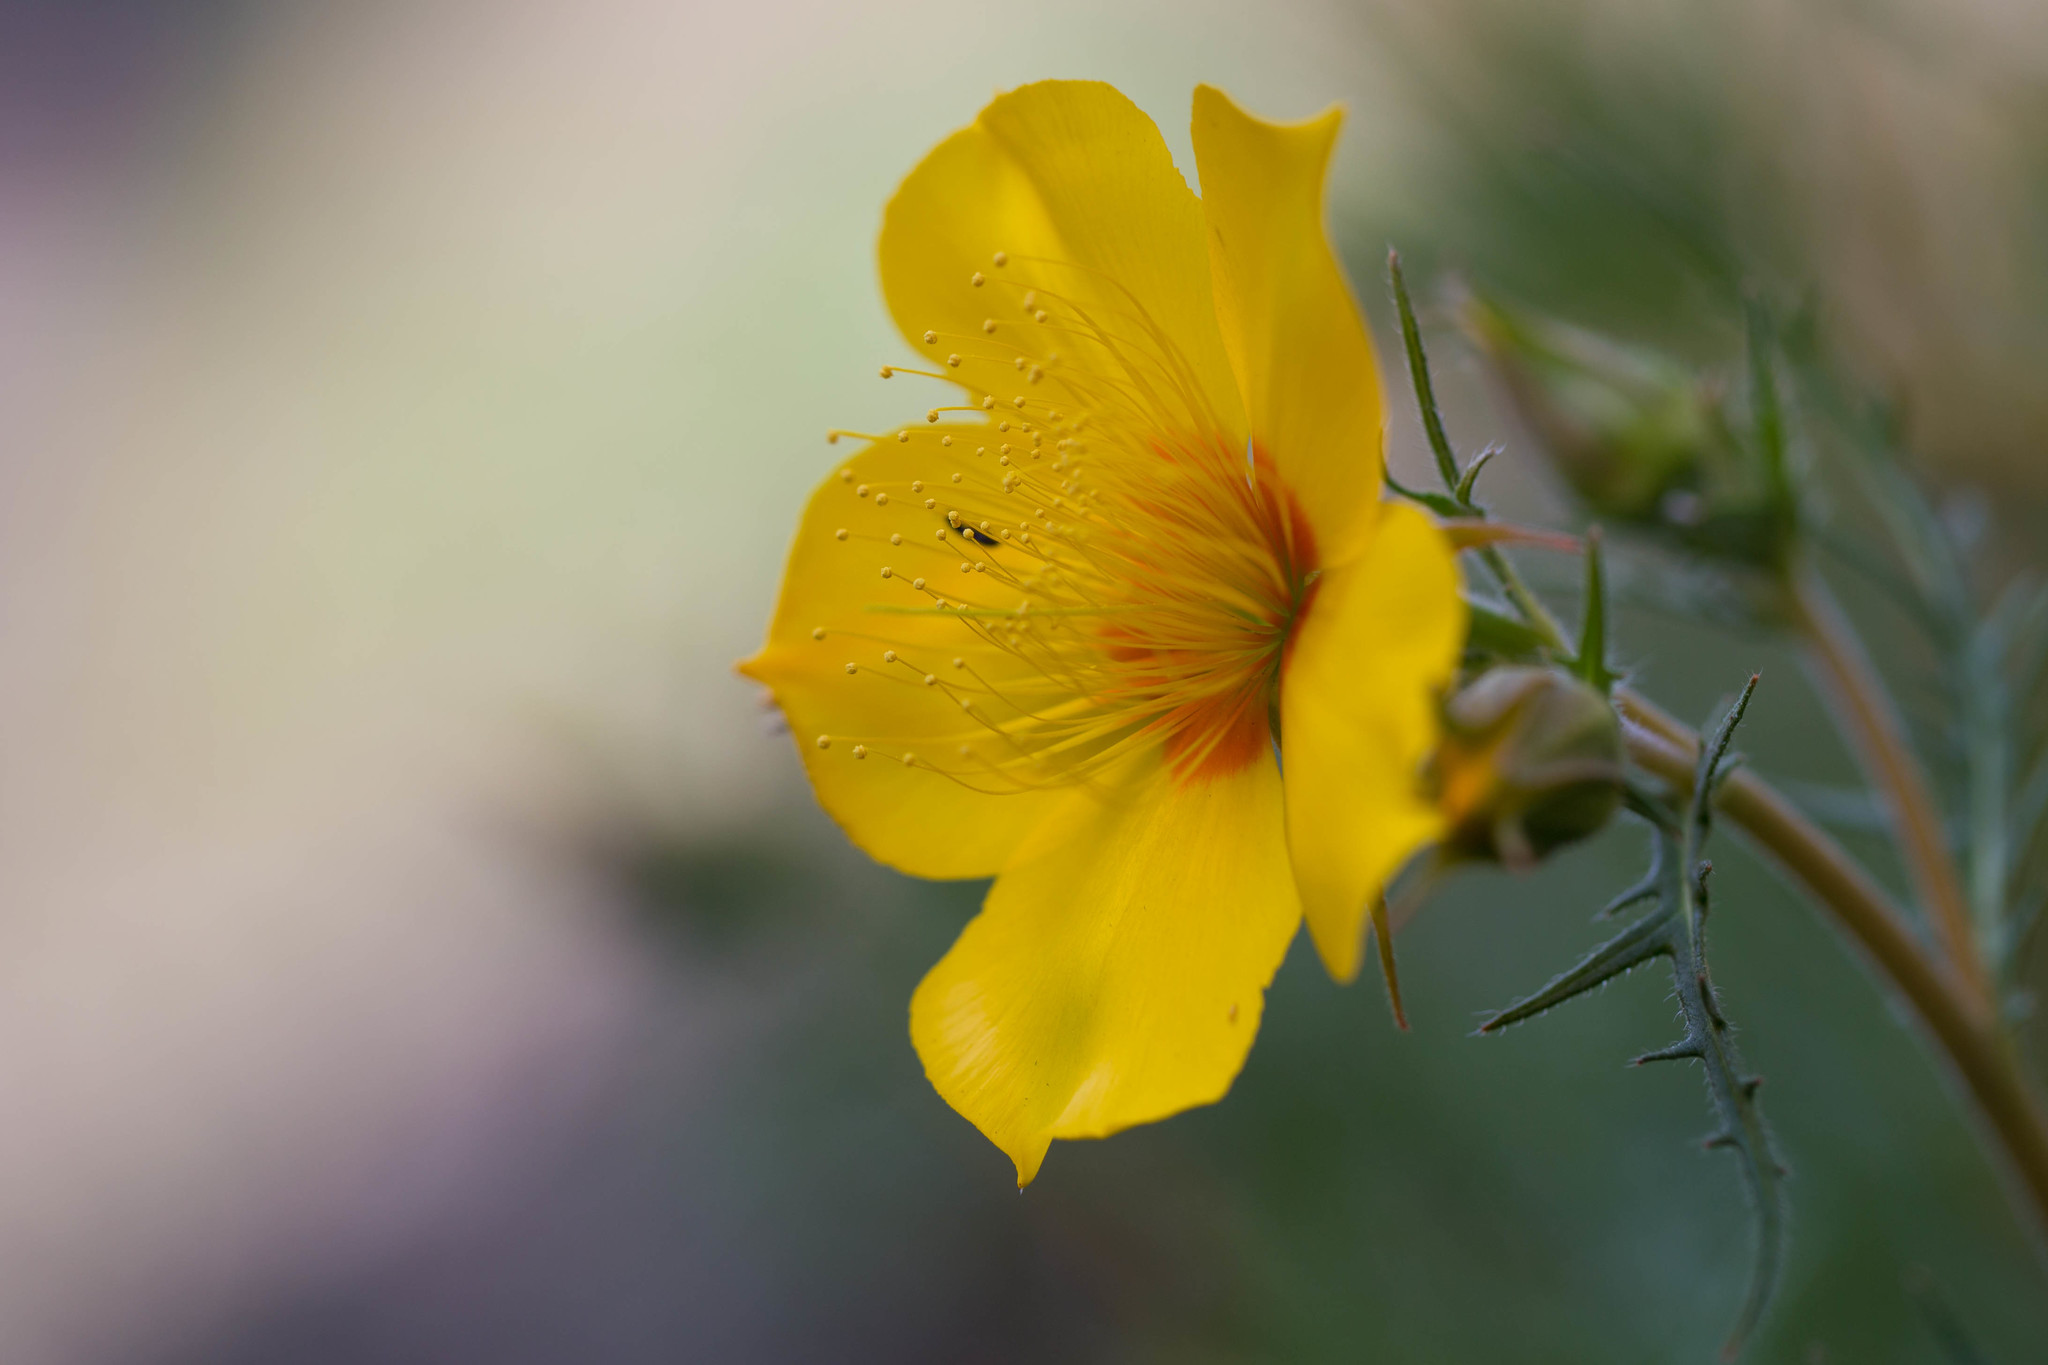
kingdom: Plantae
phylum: Tracheophyta
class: Magnoliopsida
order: Cornales
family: Loasaceae
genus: Mentzelia
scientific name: Mentzelia lindleyi
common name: Golden bartonia
